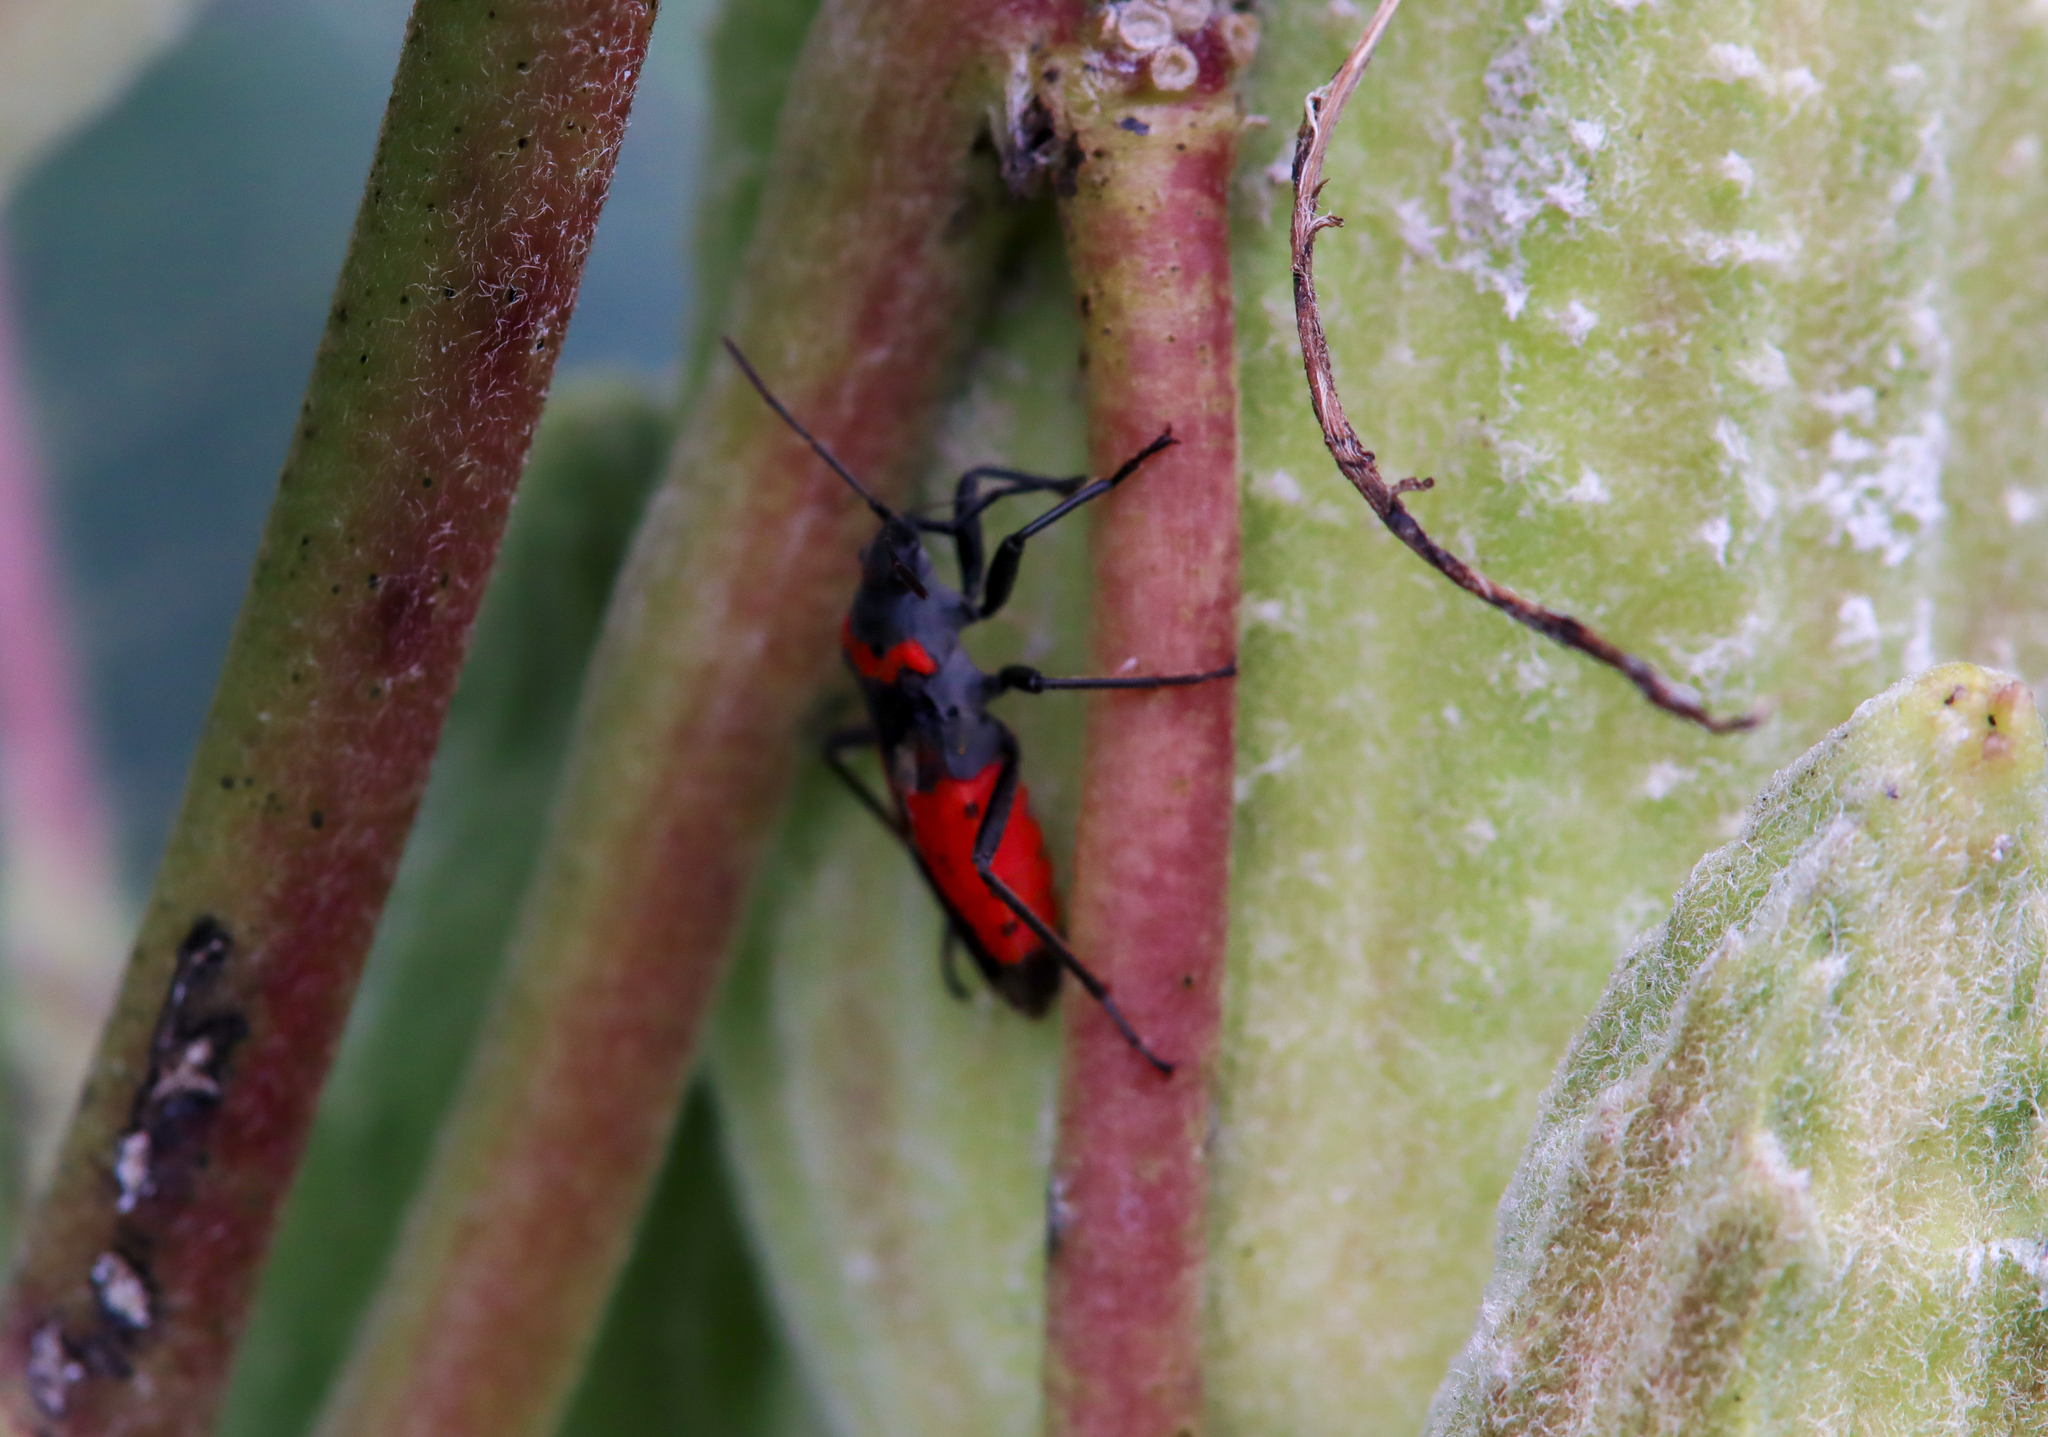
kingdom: Animalia
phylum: Arthropoda
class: Insecta
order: Hemiptera
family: Lygaeidae
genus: Lygaeus
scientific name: Lygaeus kalmii
